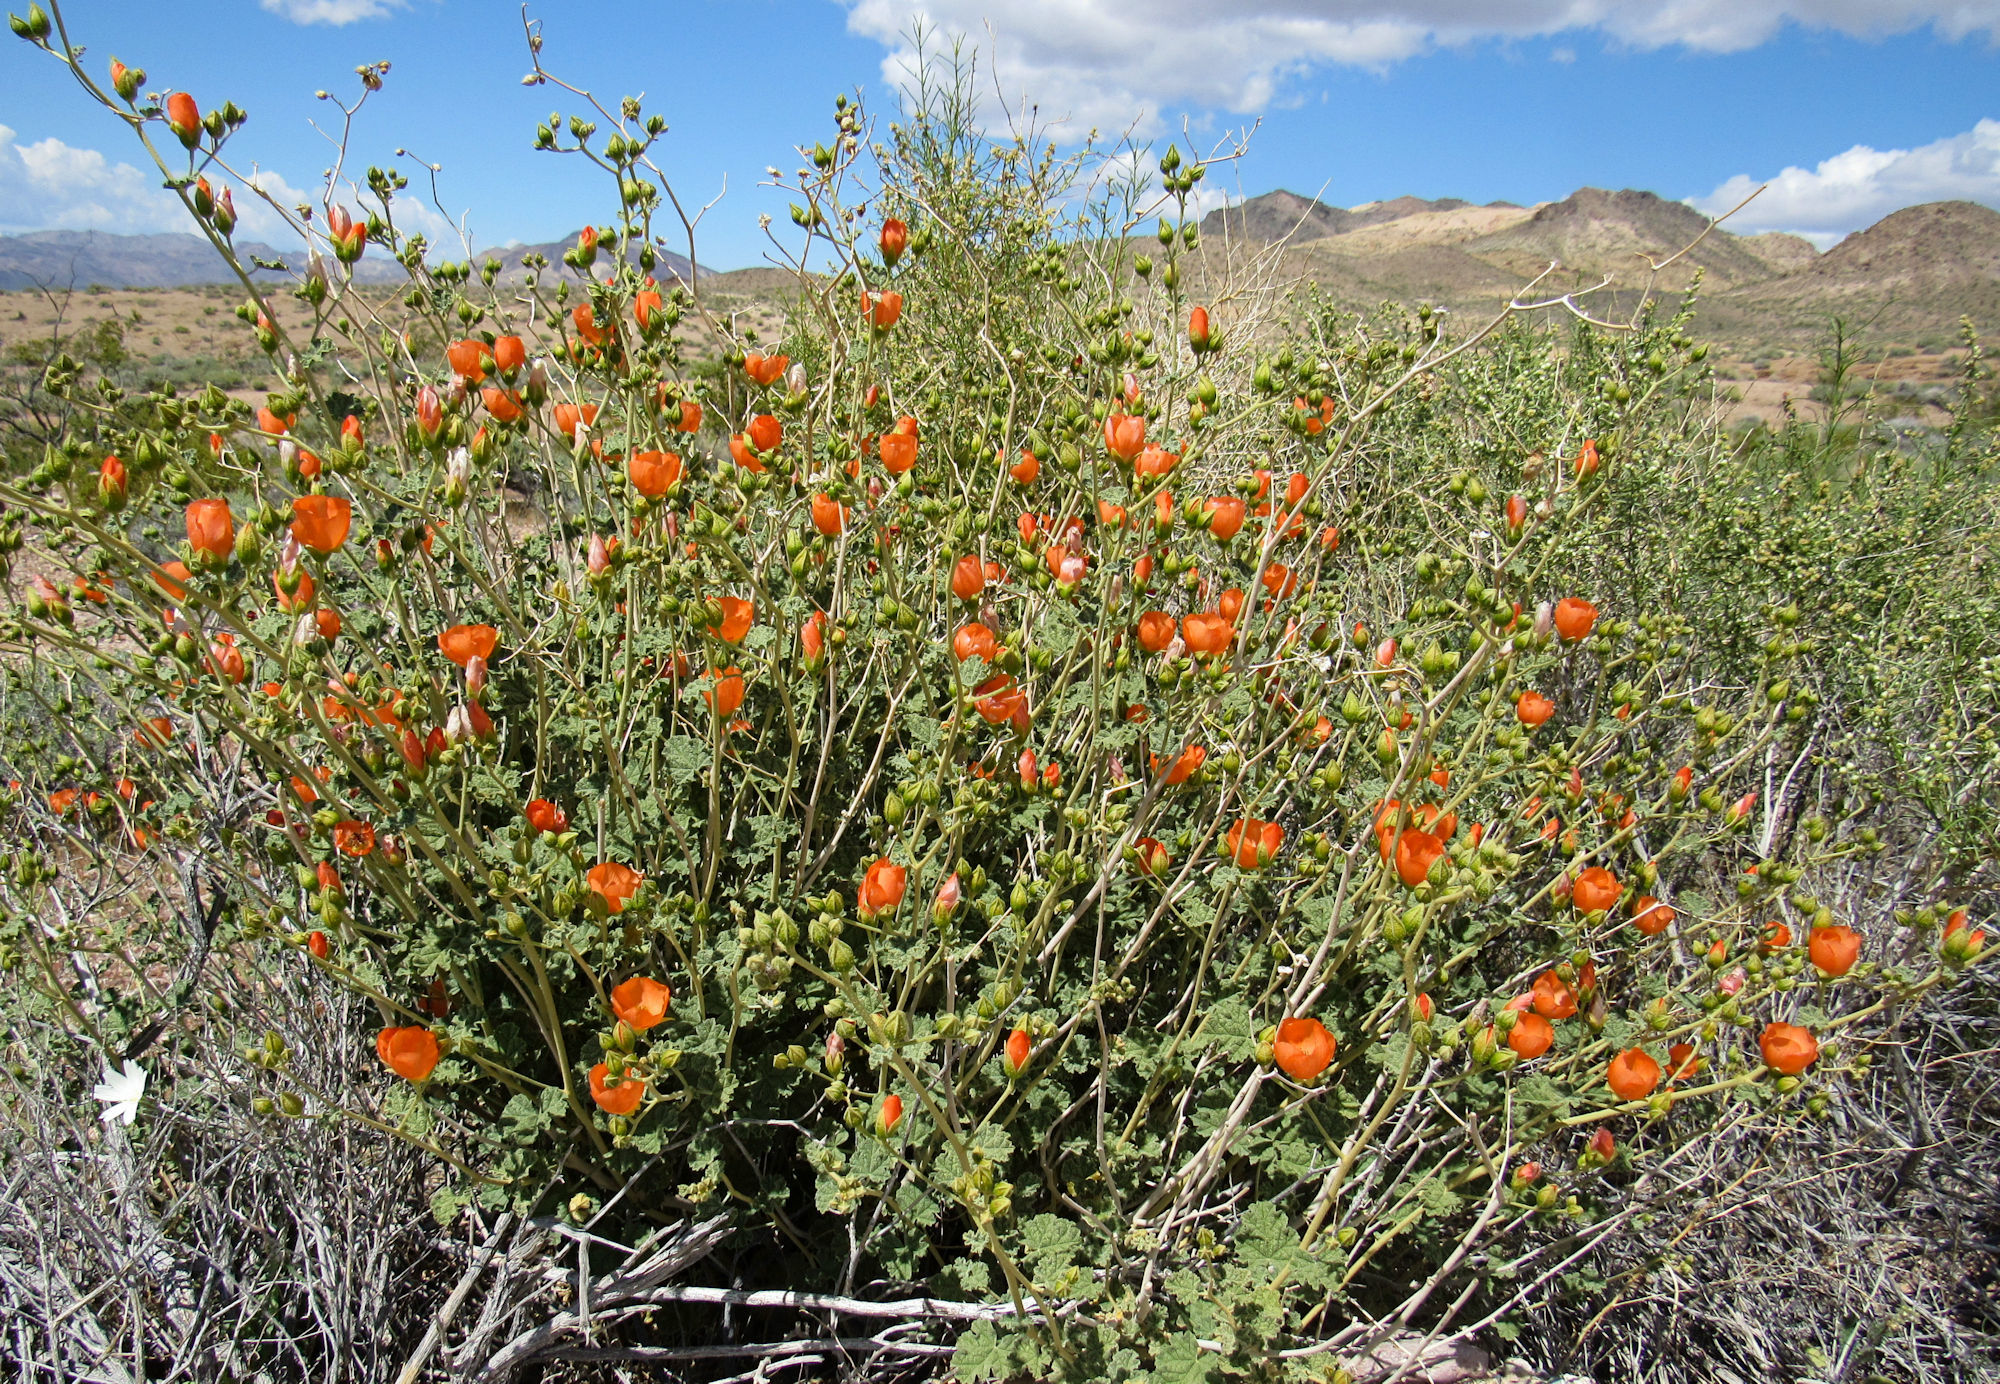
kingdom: Plantae
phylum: Tracheophyta
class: Magnoliopsida
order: Malvales
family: Malvaceae
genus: Sphaeralcea
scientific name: Sphaeralcea ambigua
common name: Apricot globe-mallow
